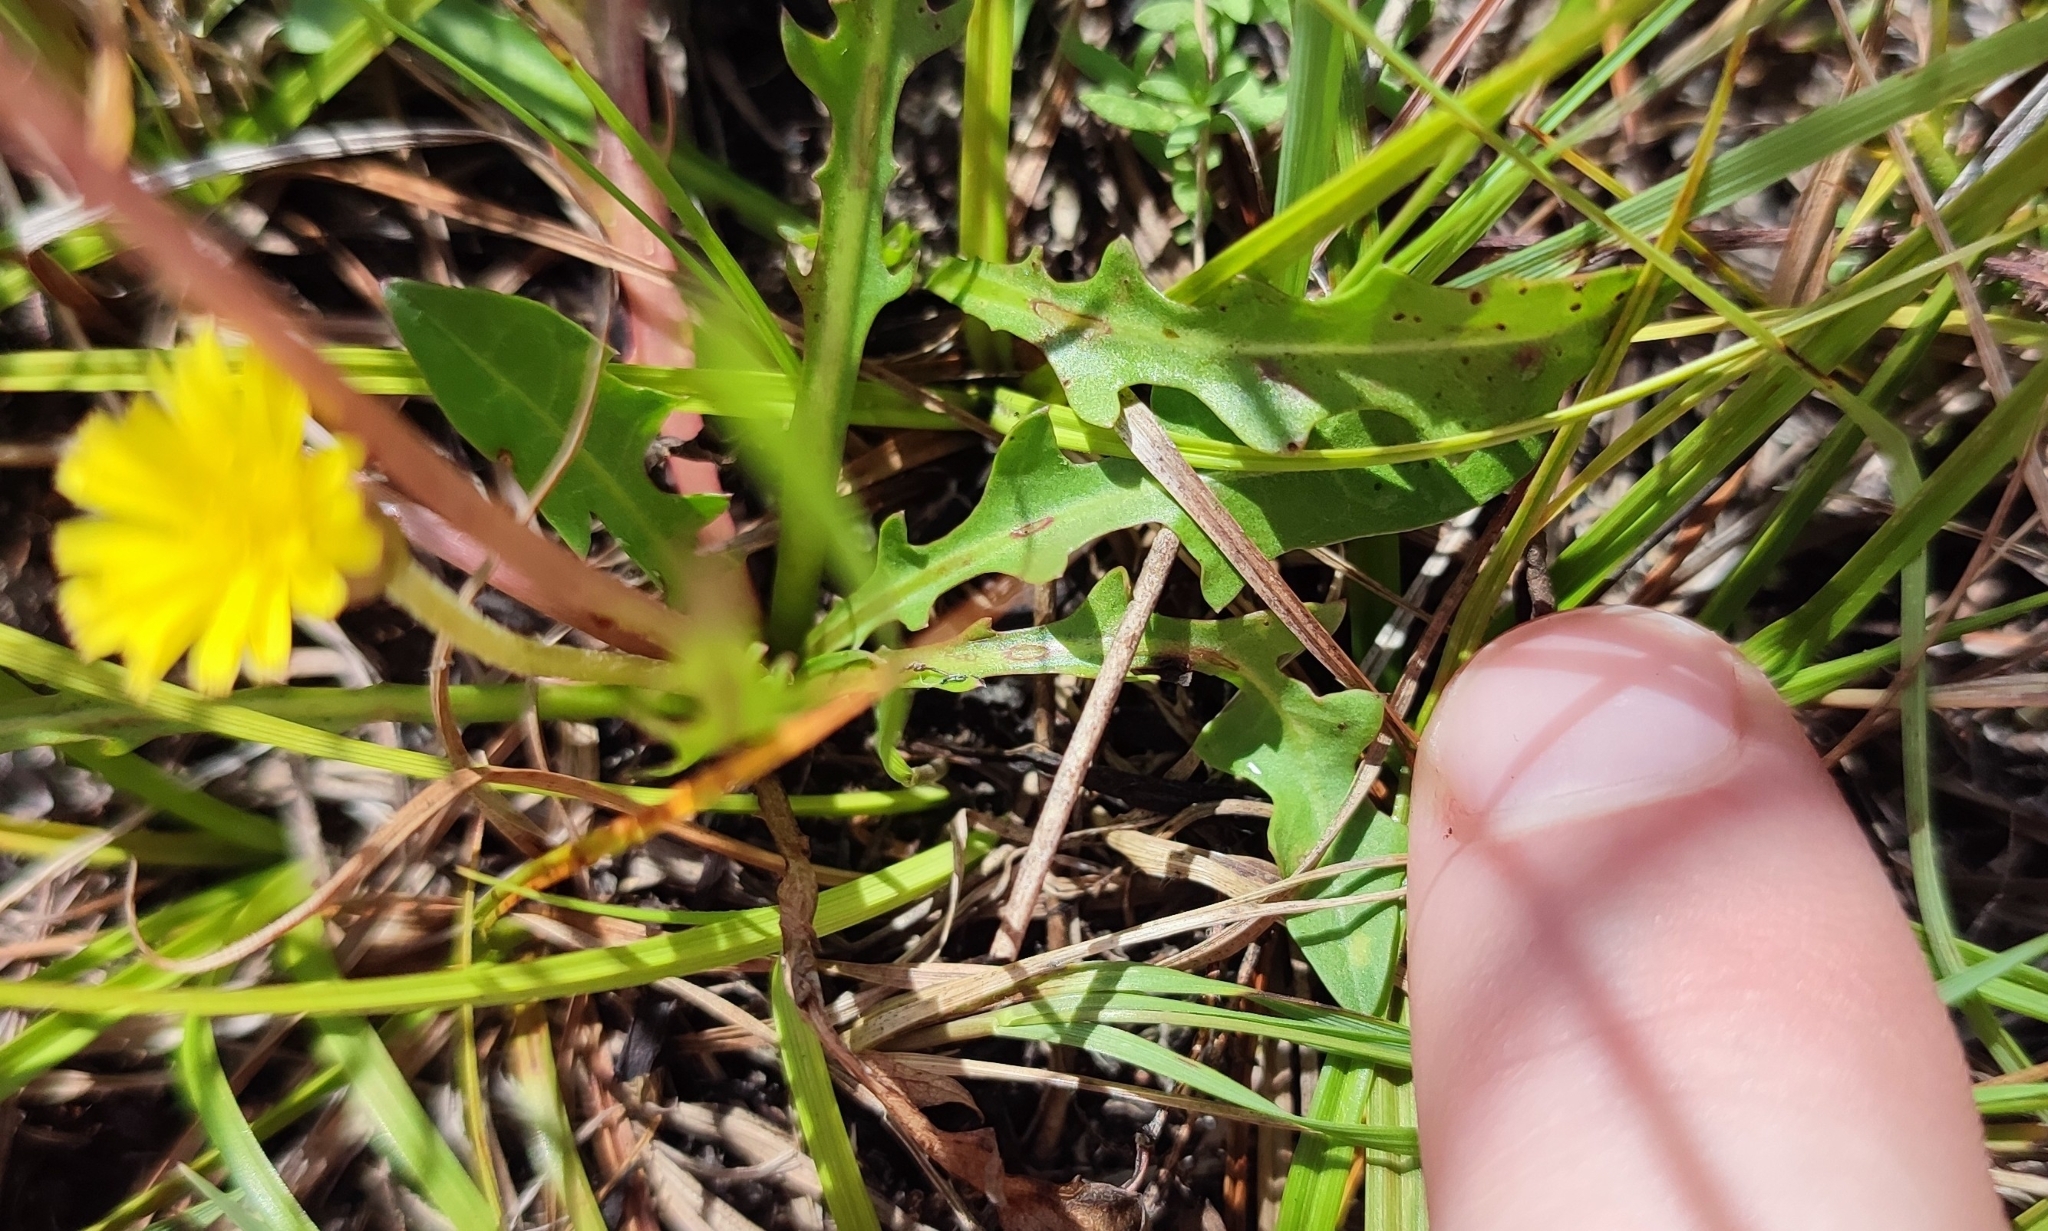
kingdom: Plantae
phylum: Tracheophyta
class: Magnoliopsida
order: Asterales
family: Asteraceae
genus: Taraxacum
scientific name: Taraxacum bessarabicum
